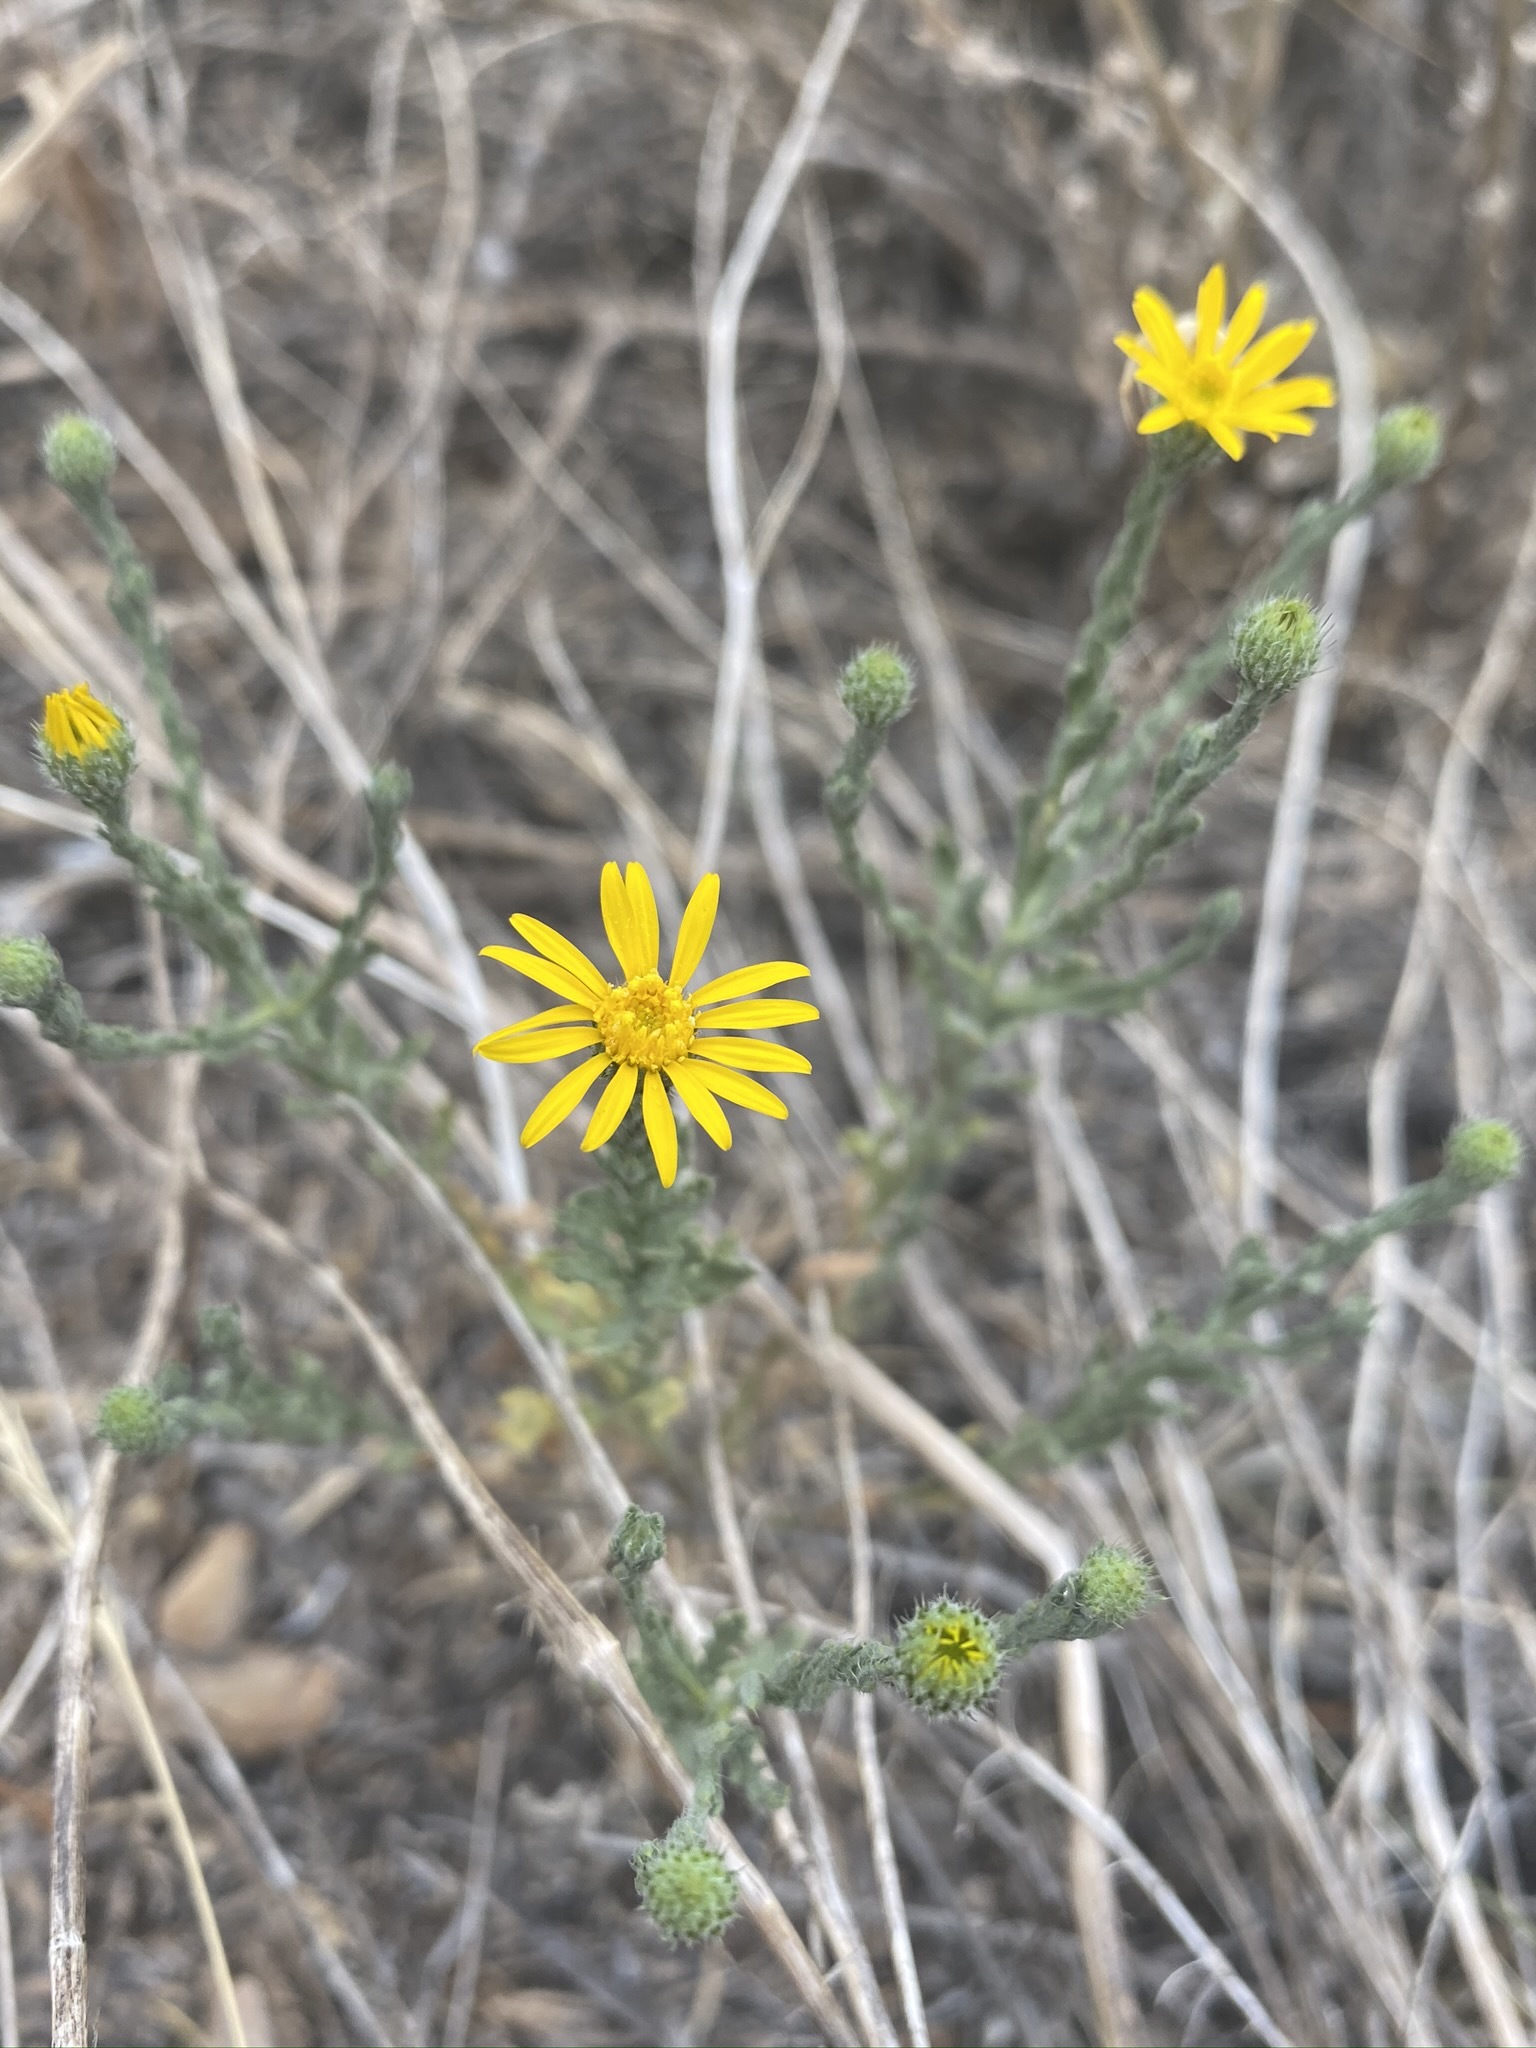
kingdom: Plantae
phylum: Tracheophyta
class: Magnoliopsida
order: Asterales
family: Asteraceae
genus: Xanthisma
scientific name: Xanthisma spinulosum
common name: Spiny goldenweed
